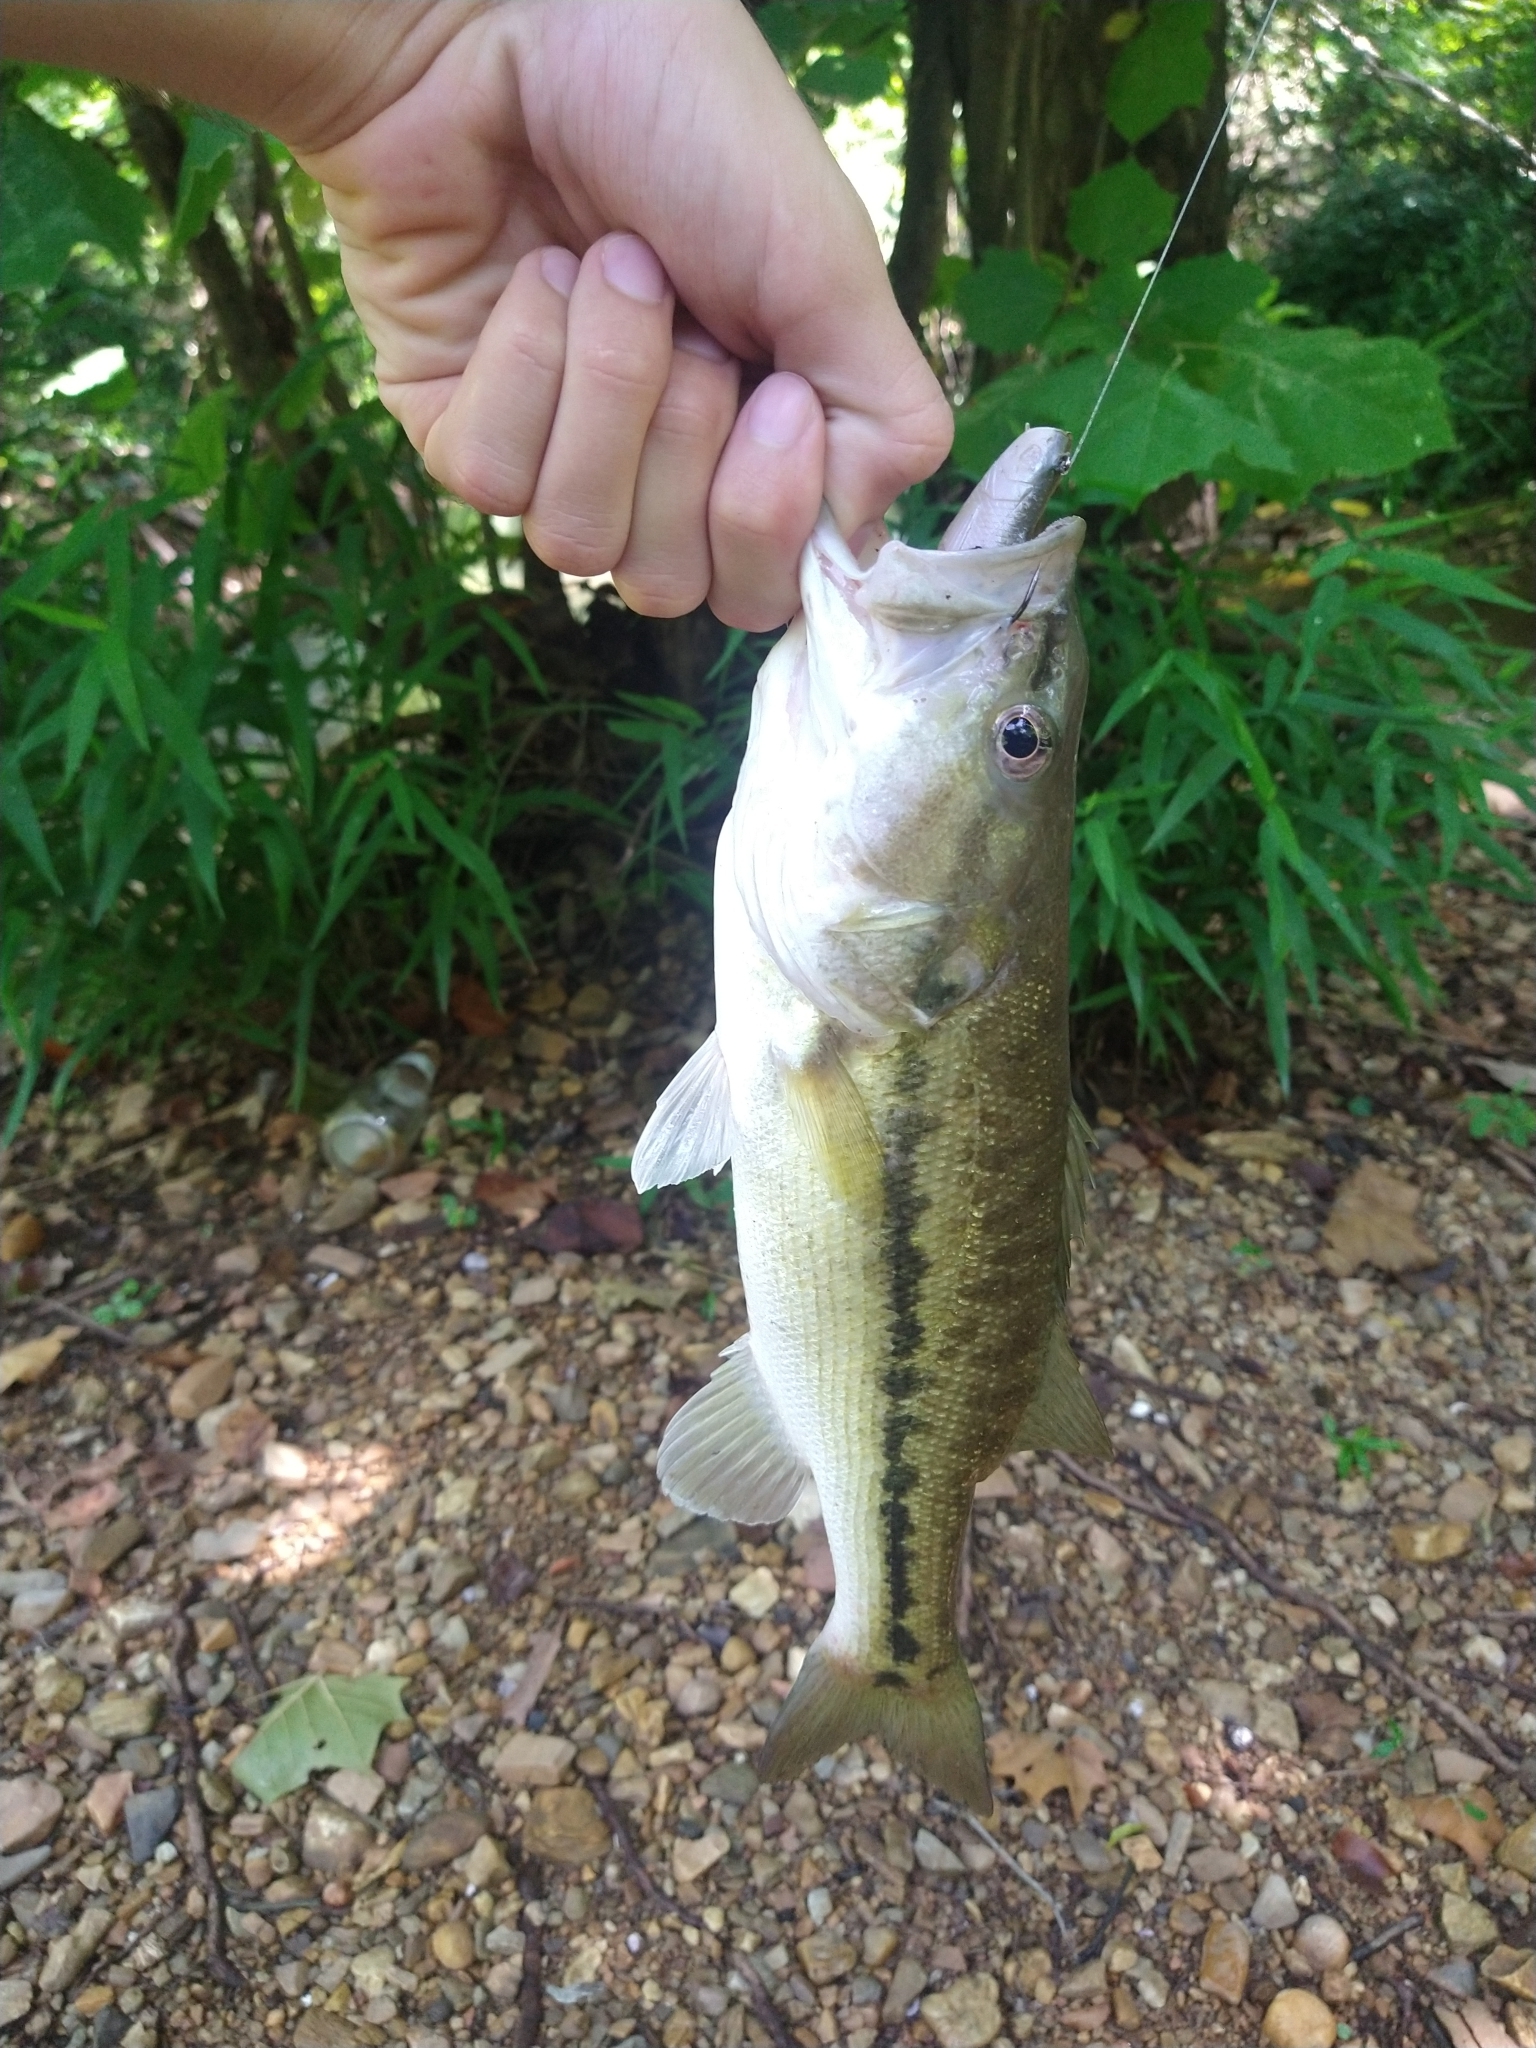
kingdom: Animalia
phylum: Chordata
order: Perciformes
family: Centrarchidae
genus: Micropterus
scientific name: Micropterus henshalli
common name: Alabama bass
